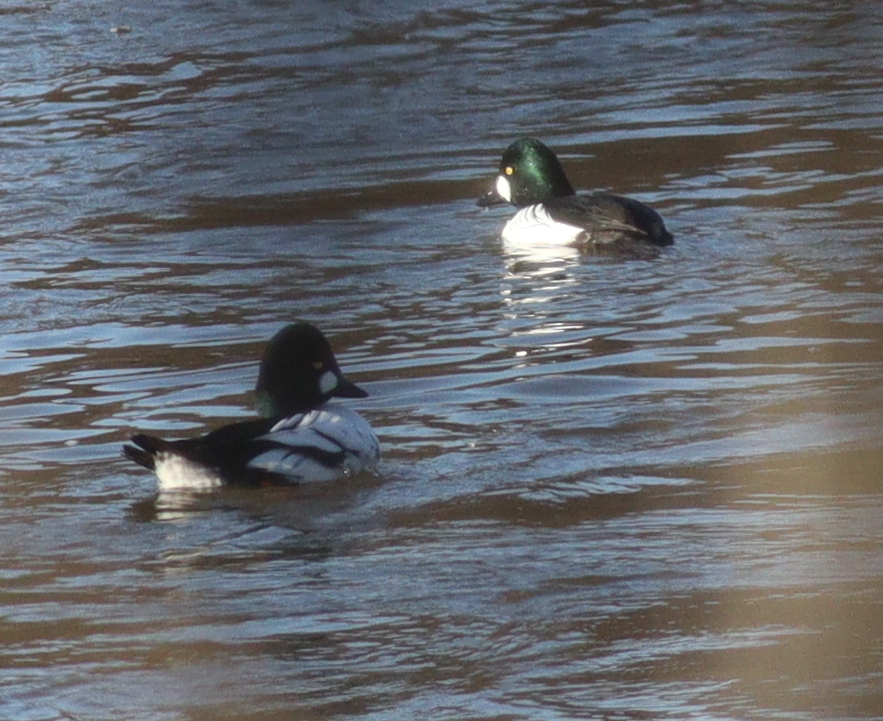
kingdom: Animalia
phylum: Chordata
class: Aves
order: Anseriformes
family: Anatidae
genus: Bucephala
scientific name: Bucephala clangula
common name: Common goldeneye
